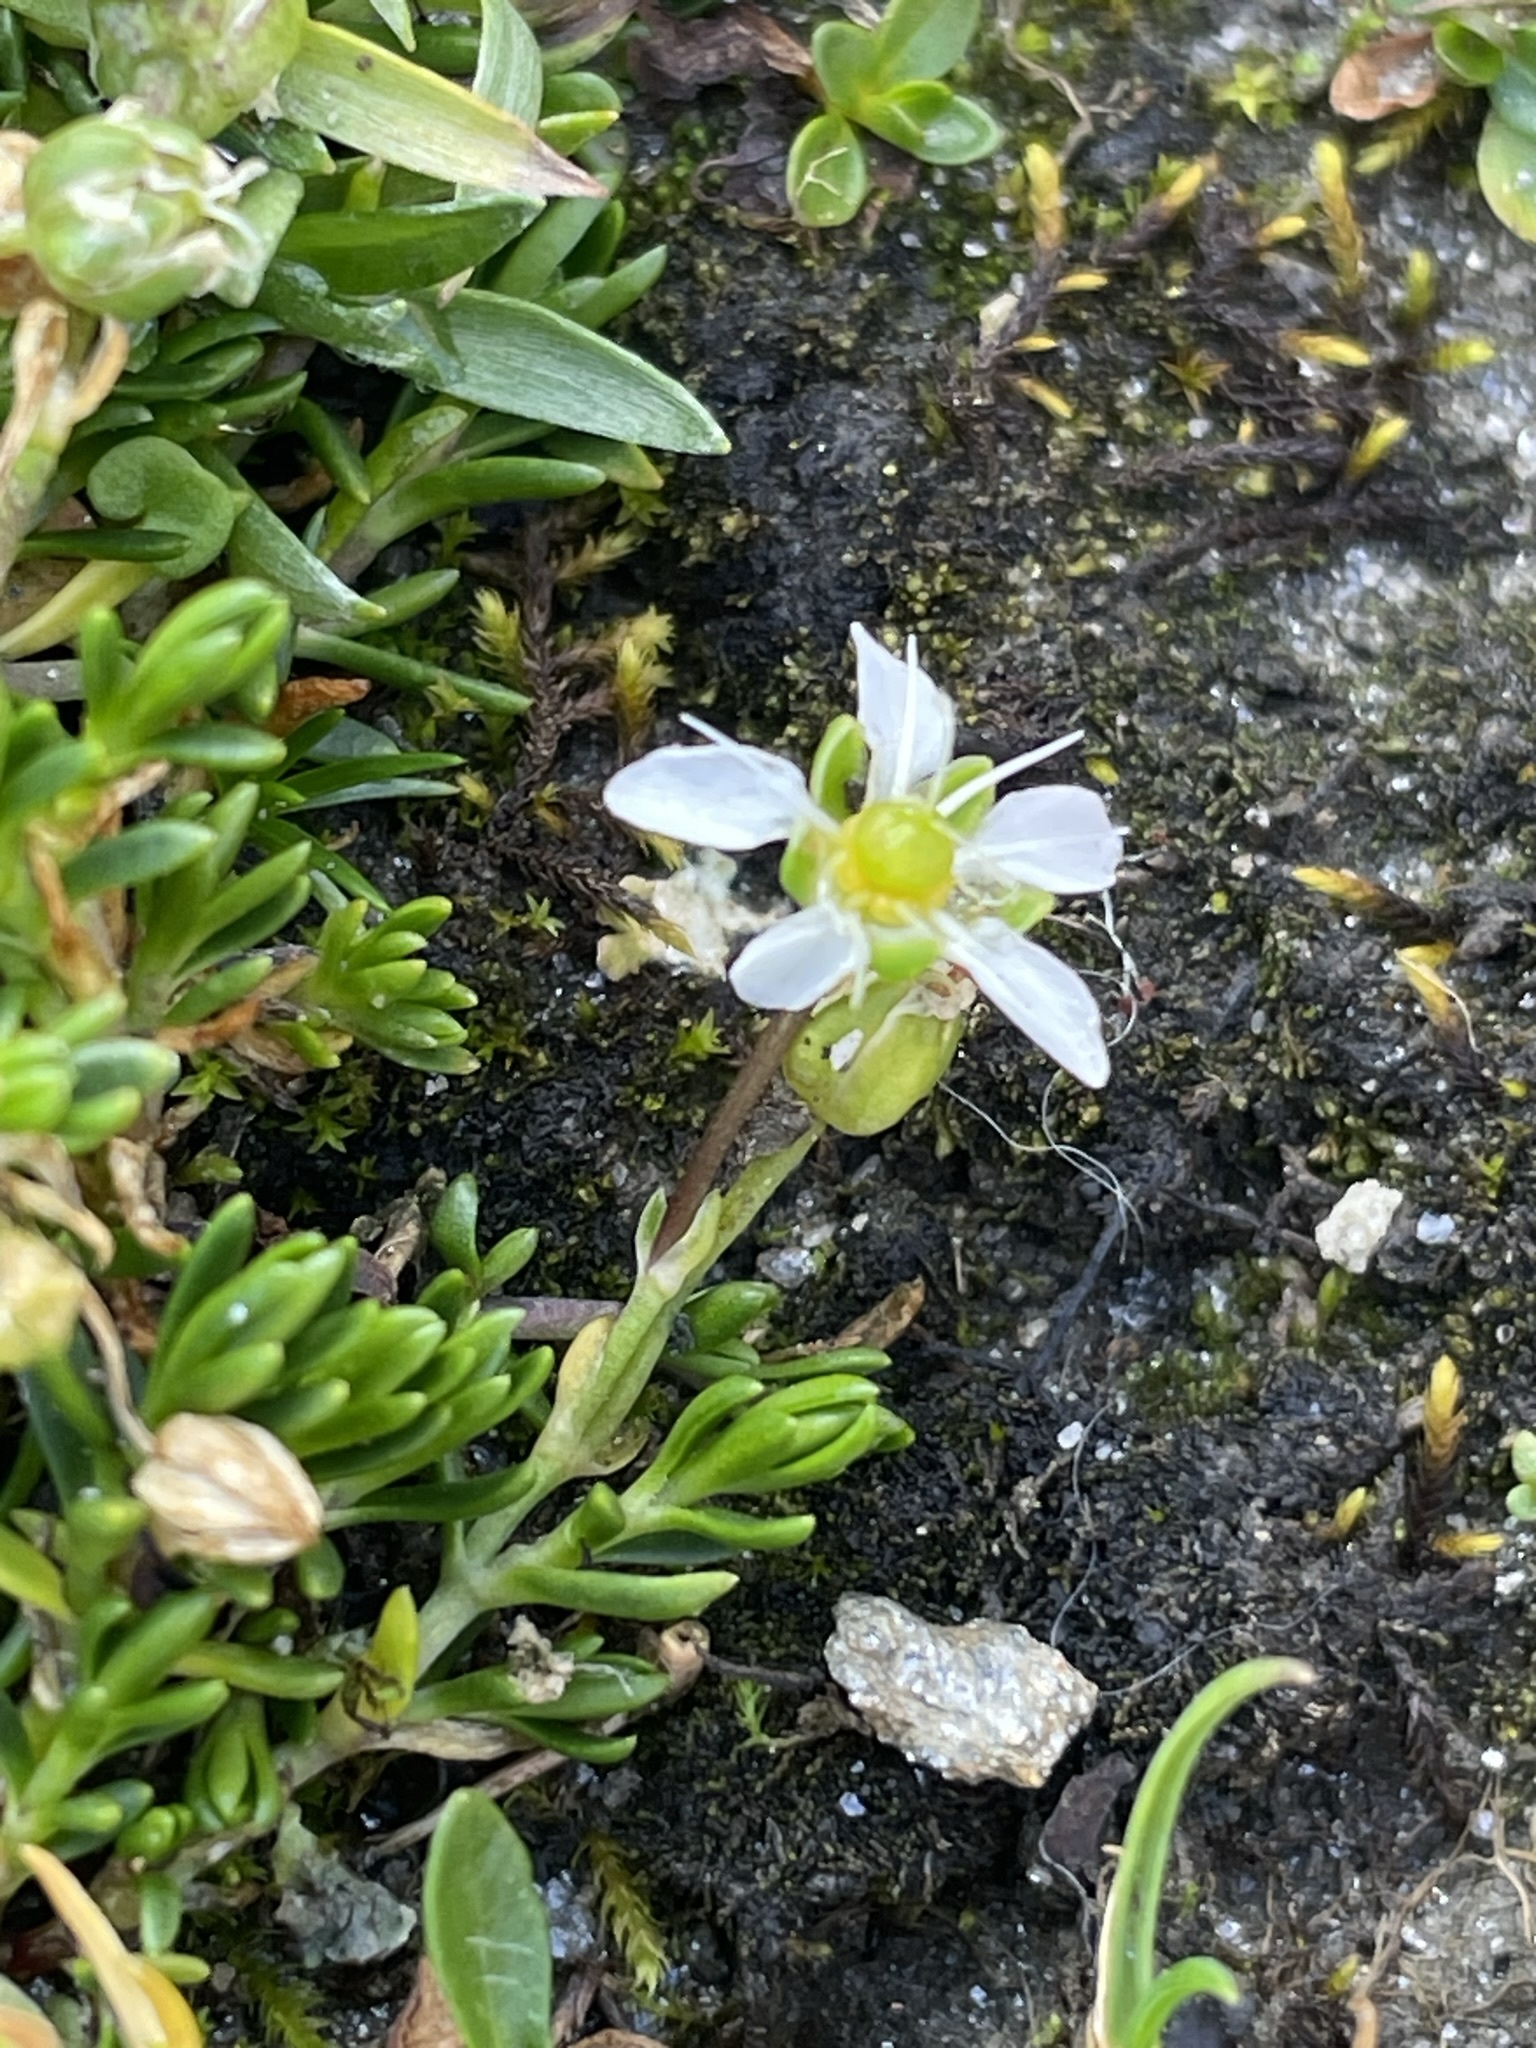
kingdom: Plantae
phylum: Tracheophyta
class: Magnoliopsida
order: Caryophyllales
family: Caryophyllaceae
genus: Moehringia
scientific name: Moehringia ciliata
